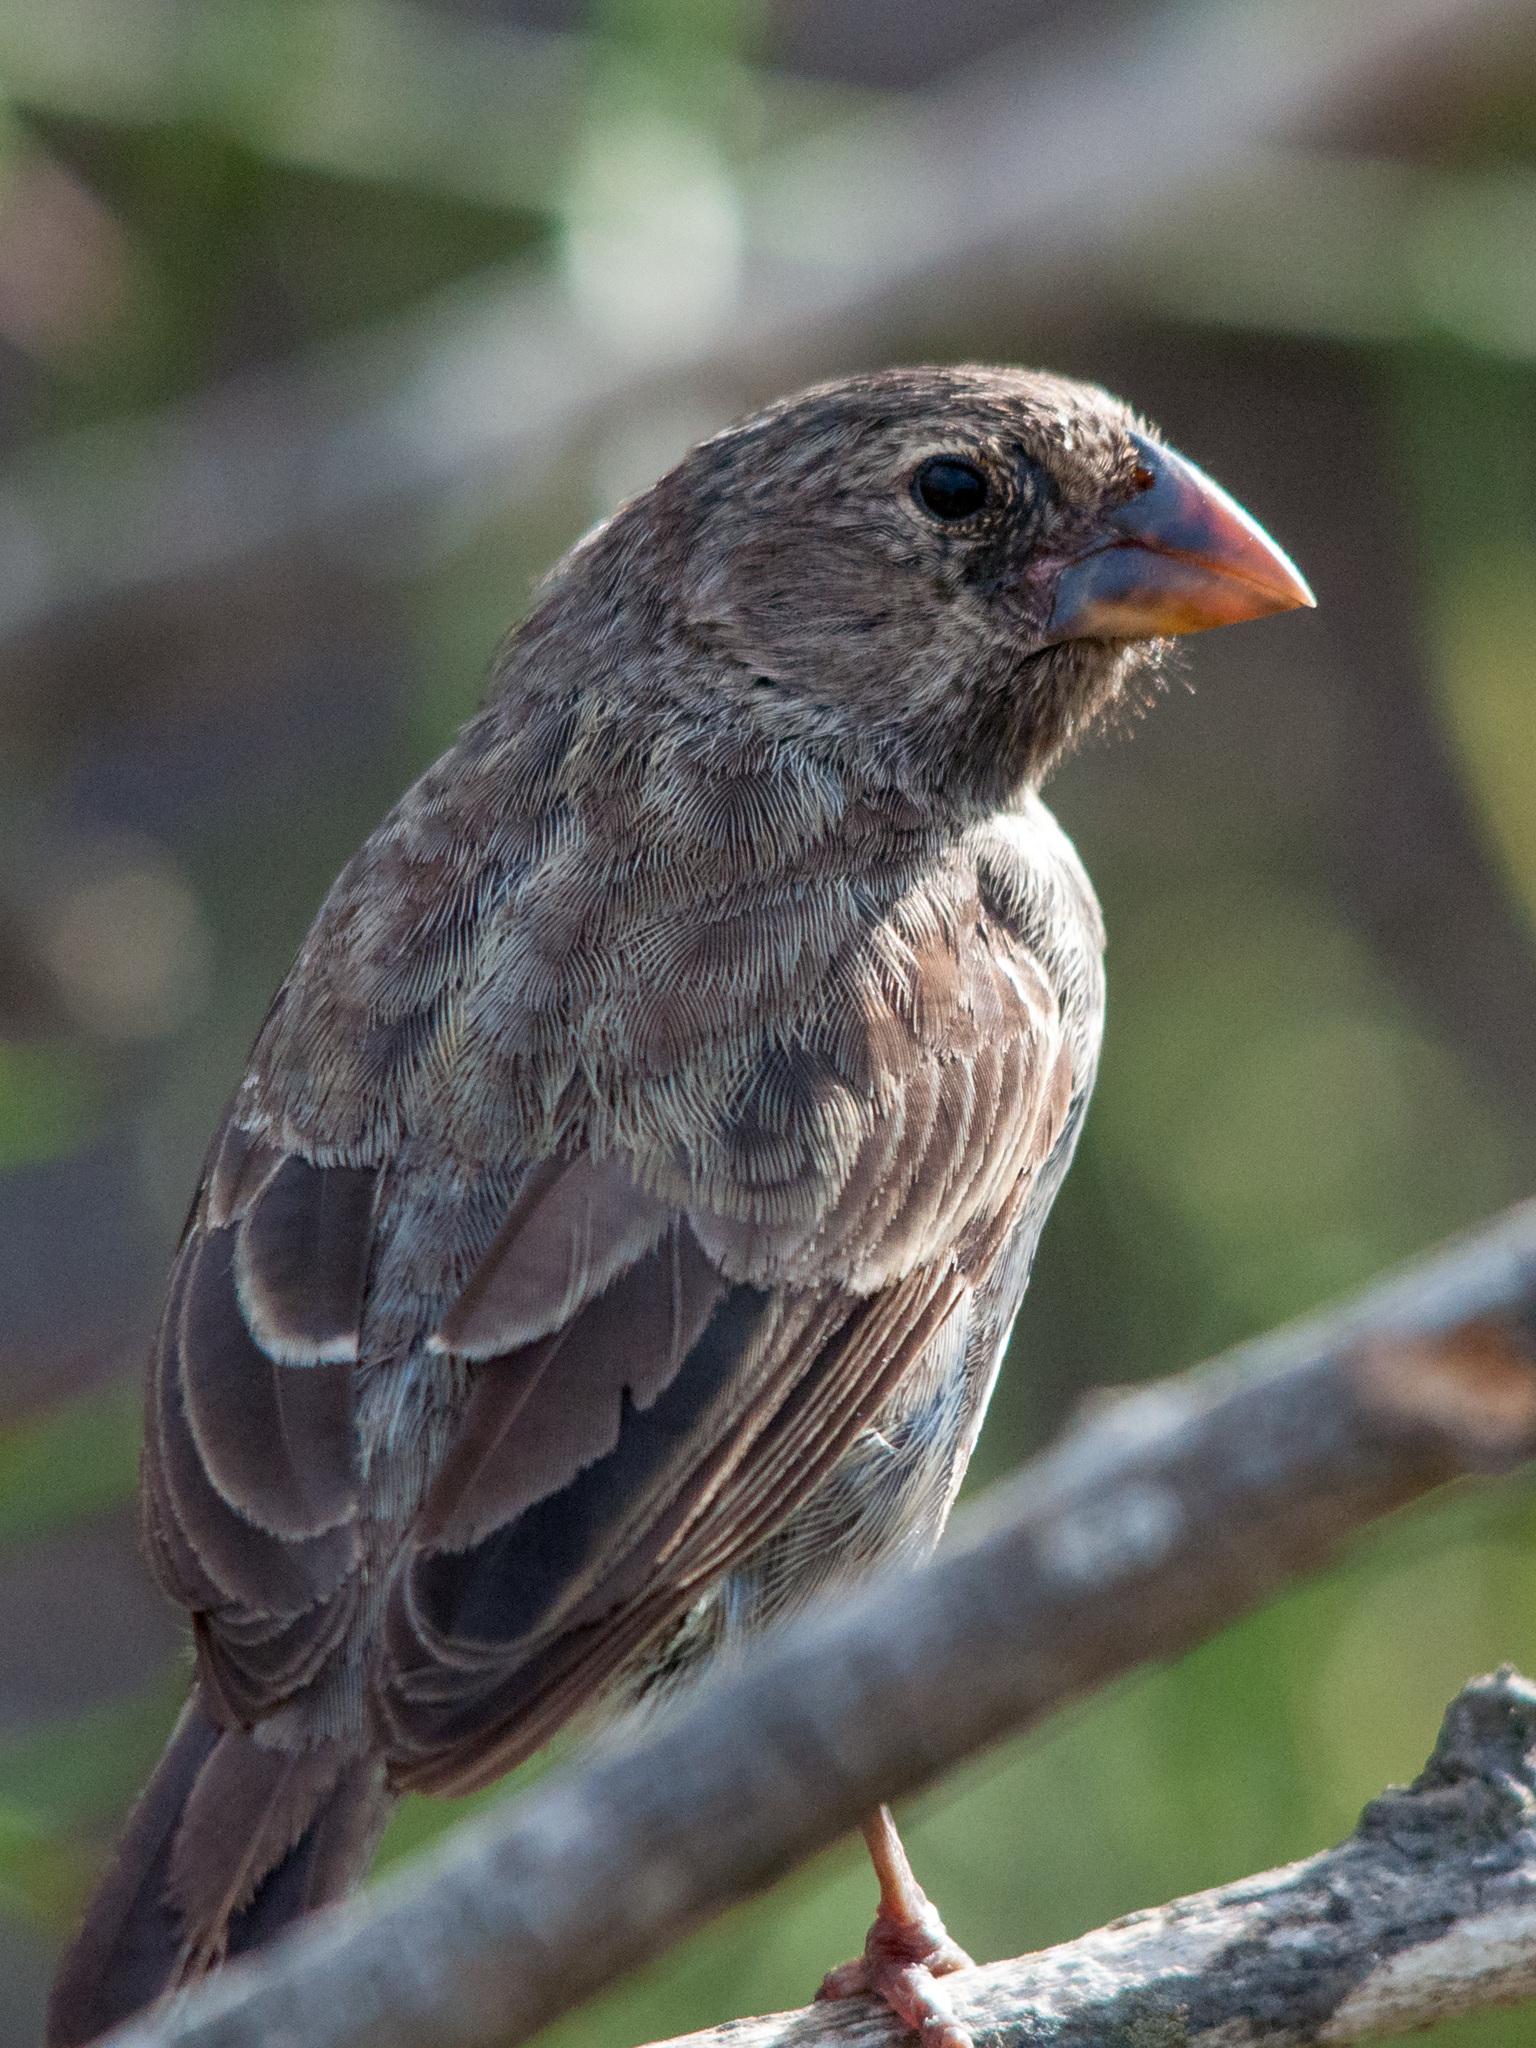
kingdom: Animalia
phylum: Chordata
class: Aves
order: Passeriformes
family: Thraupidae
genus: Geospiza
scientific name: Geospiza fortis
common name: Medium ground finch
